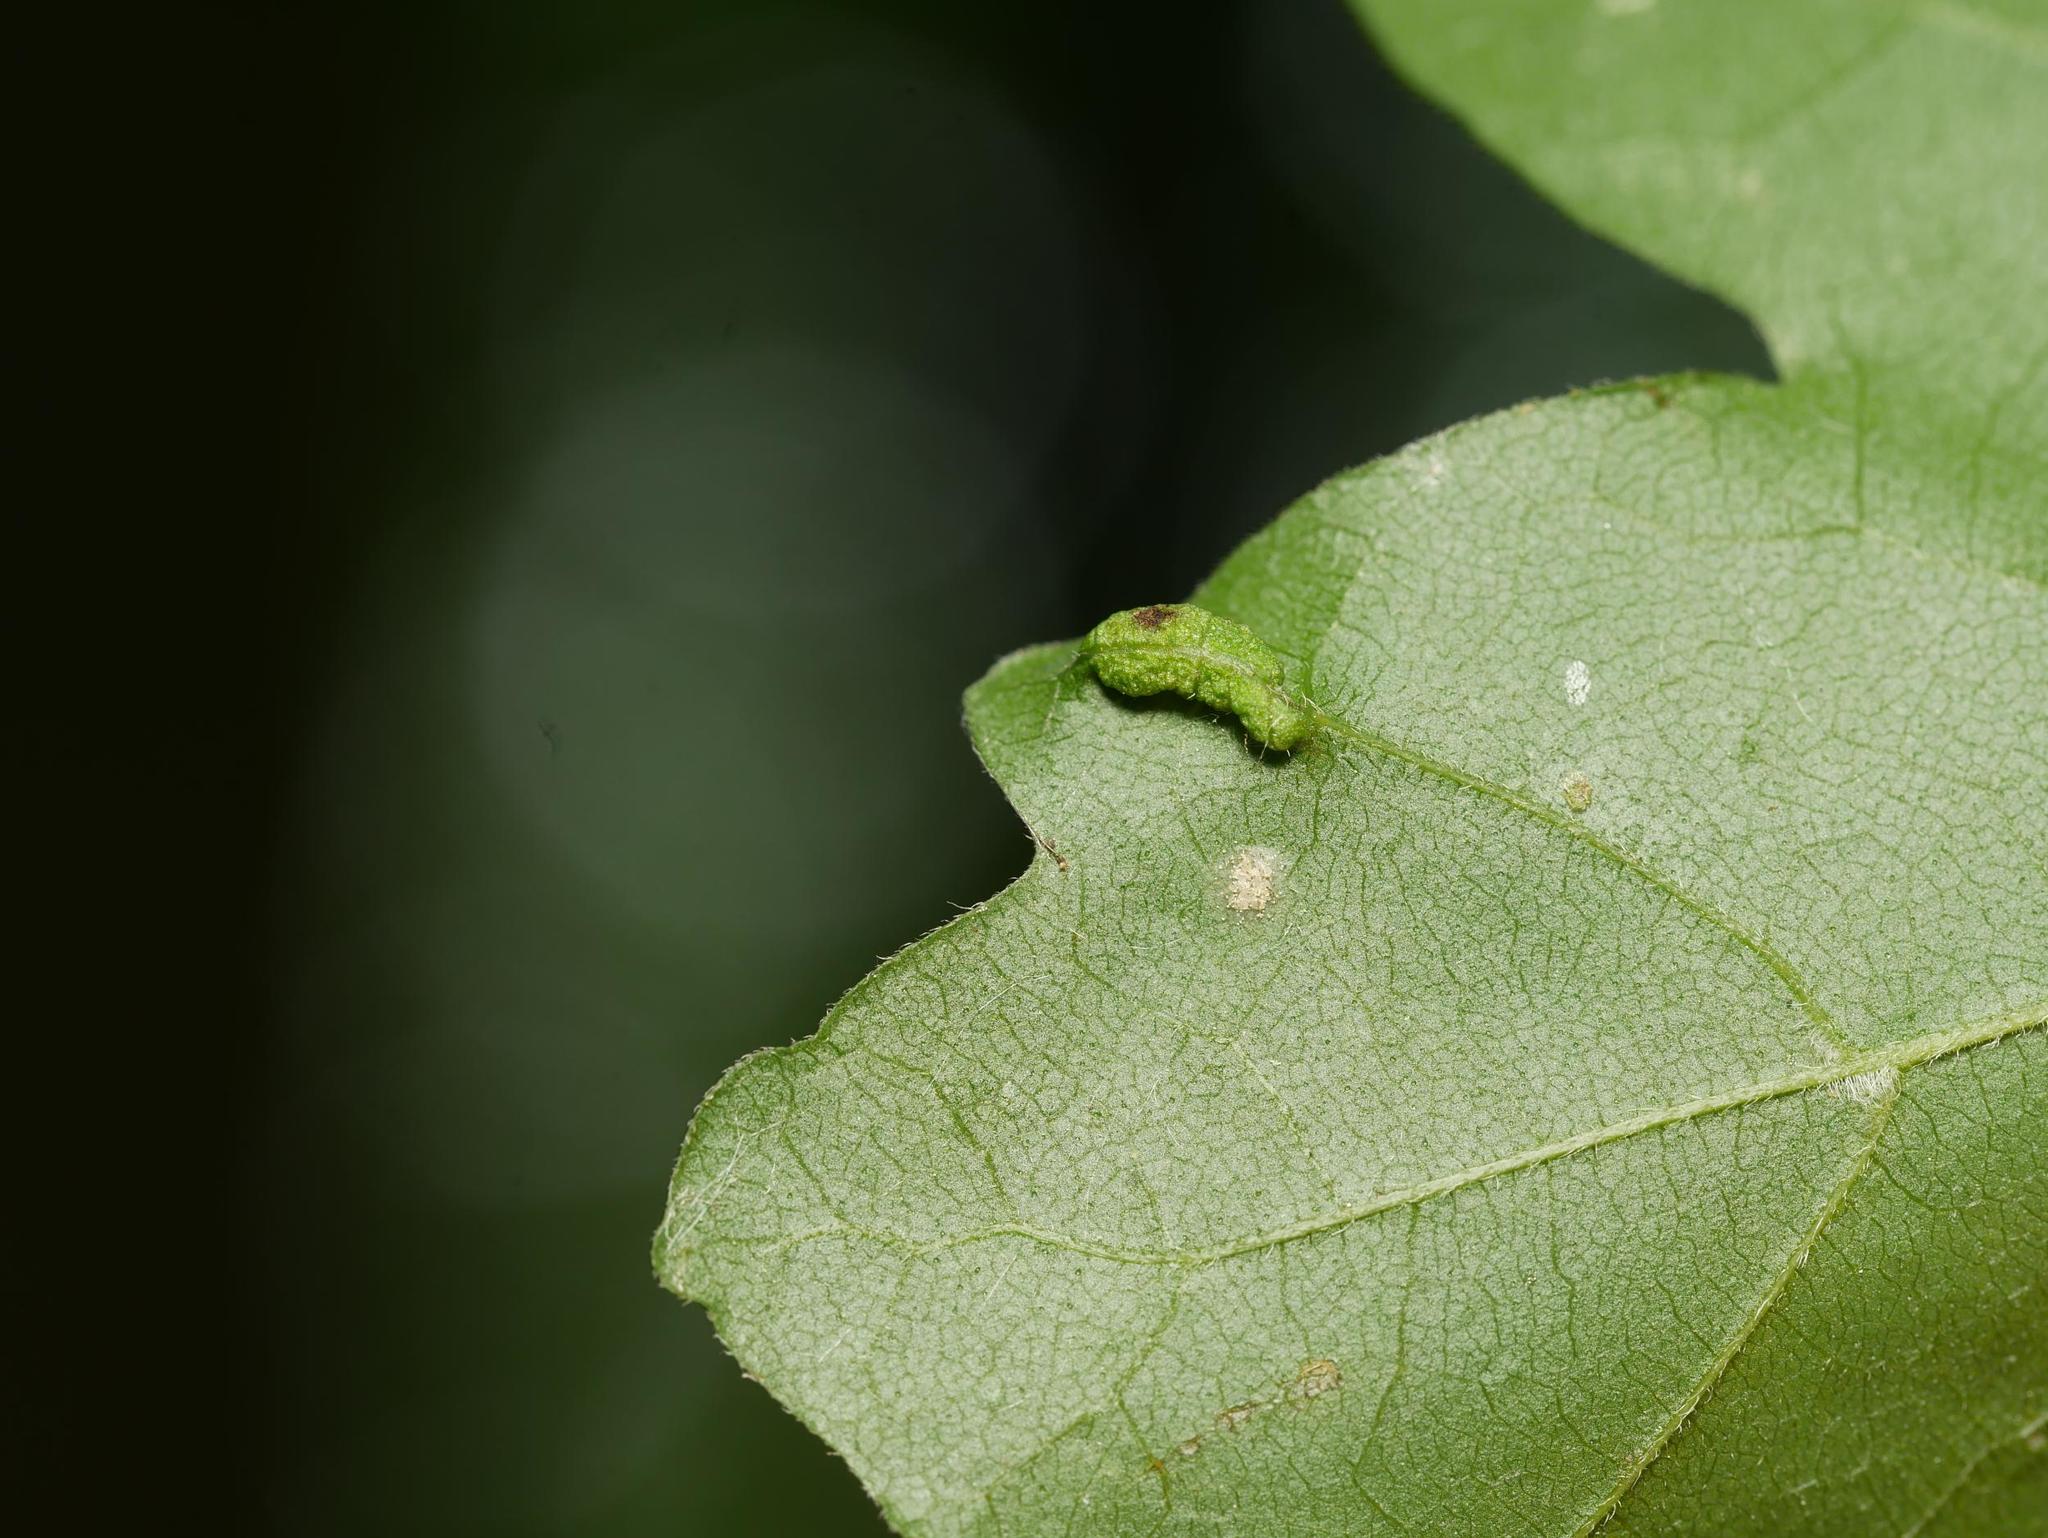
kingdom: Animalia
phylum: Arthropoda
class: Arachnida
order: Trombidiformes
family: Eriophyidae
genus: Aceria
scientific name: Aceria carinifex
